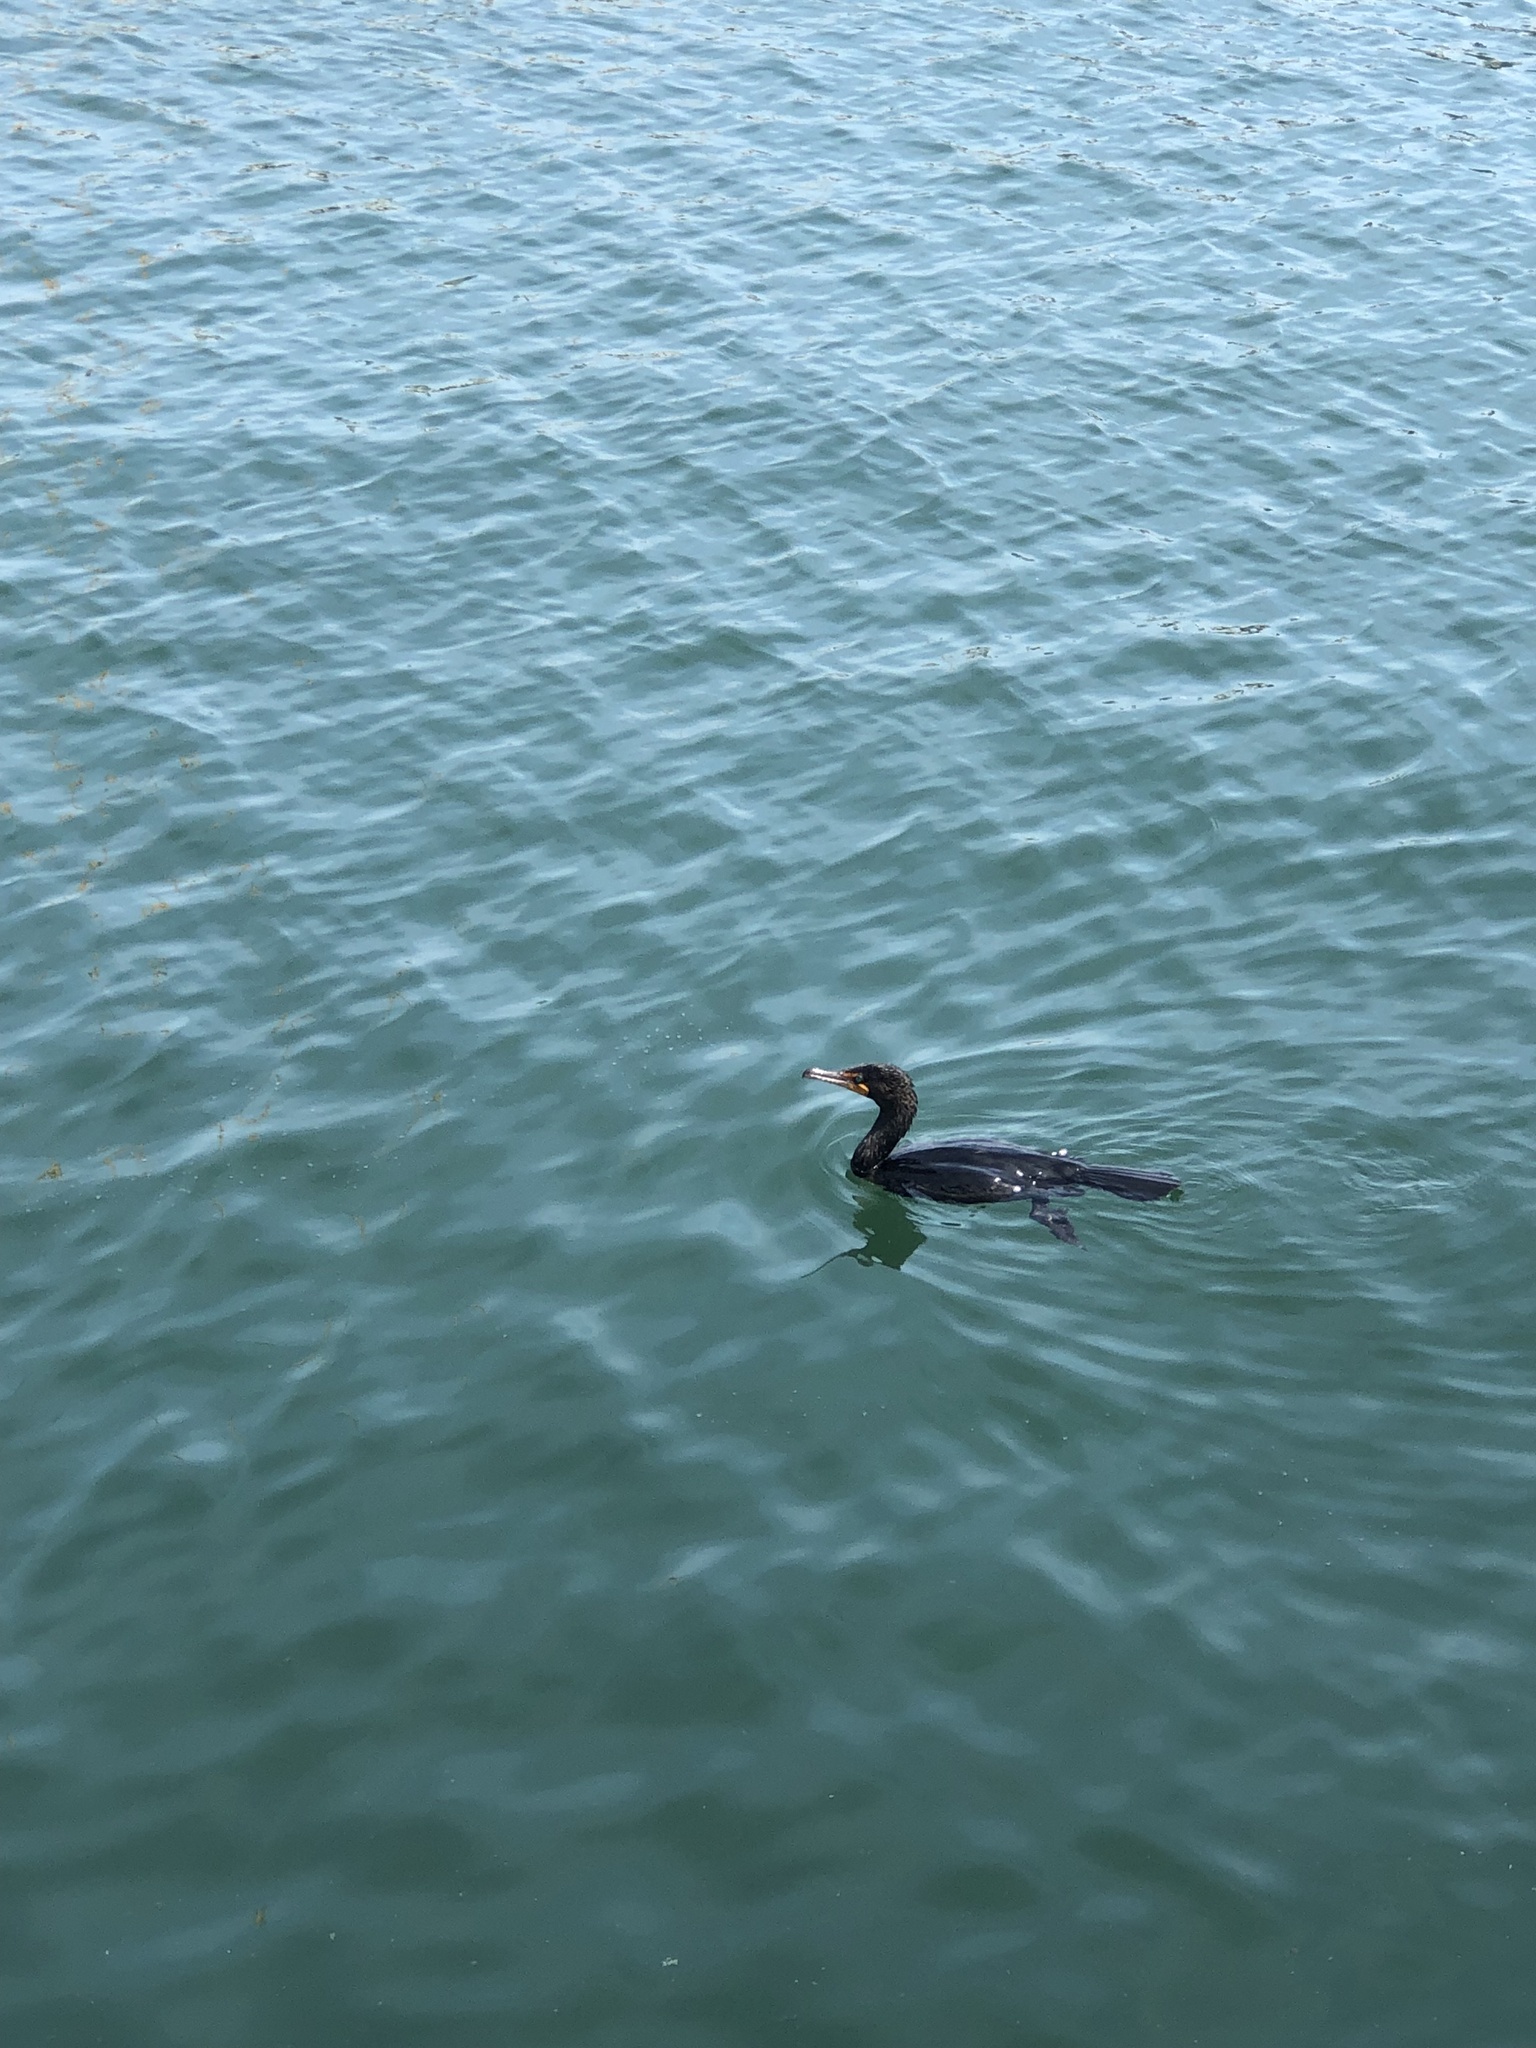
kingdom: Animalia
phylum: Chordata
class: Aves
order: Suliformes
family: Phalacrocoracidae
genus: Phalacrocorax
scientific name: Phalacrocorax auritus
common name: Double-crested cormorant
